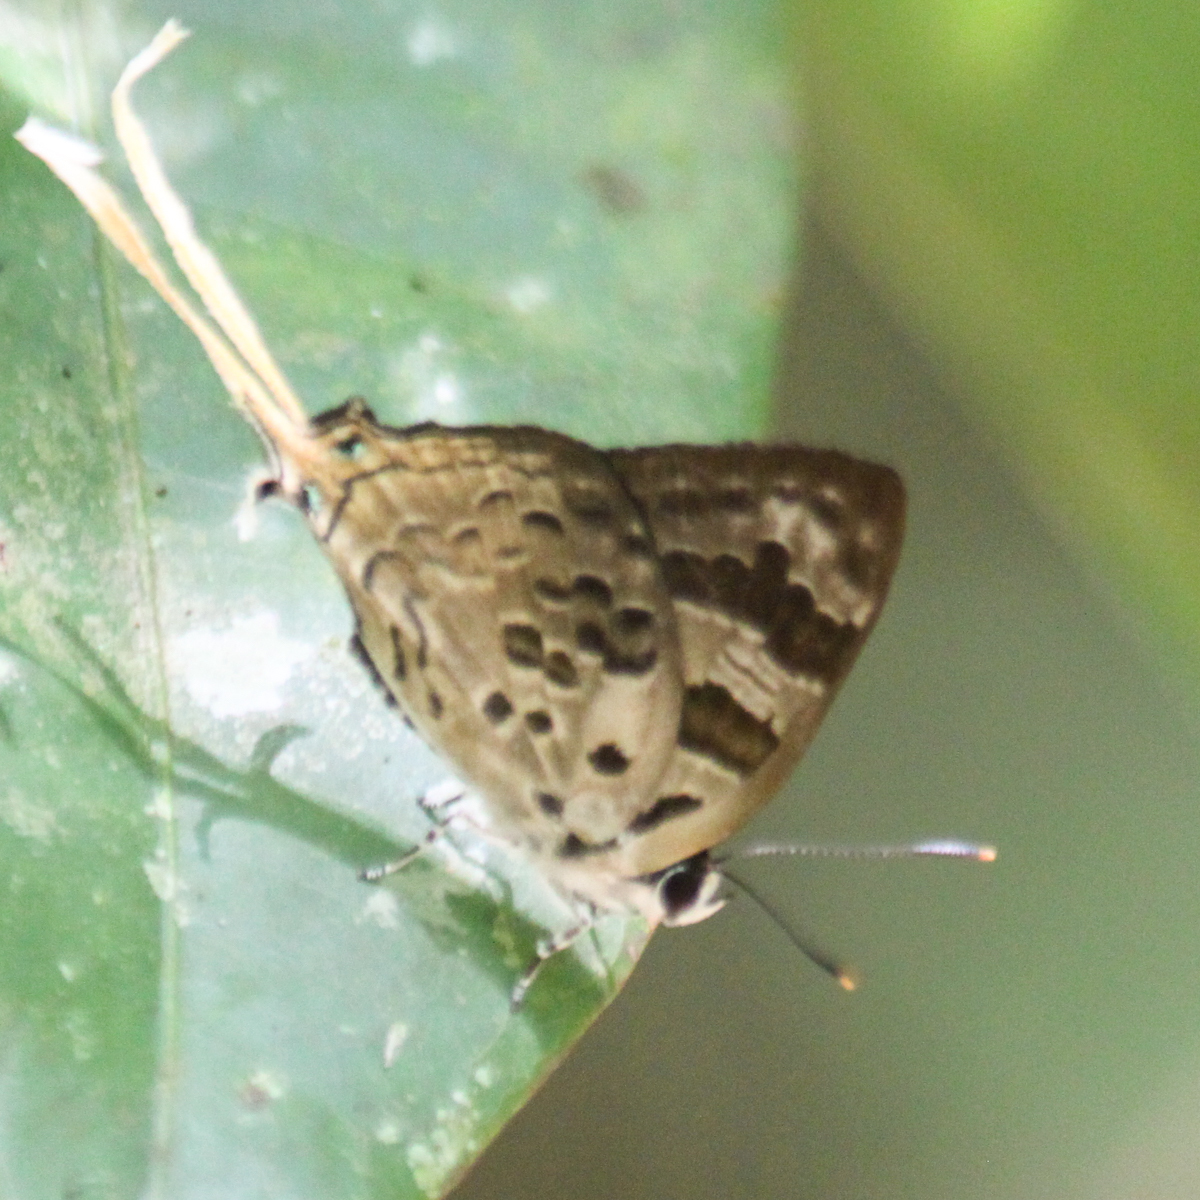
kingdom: Animalia
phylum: Arthropoda
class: Insecta
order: Lepidoptera
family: Lycaenidae
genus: Bindahara
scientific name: Bindahara phocides
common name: Sword-tailed flash
